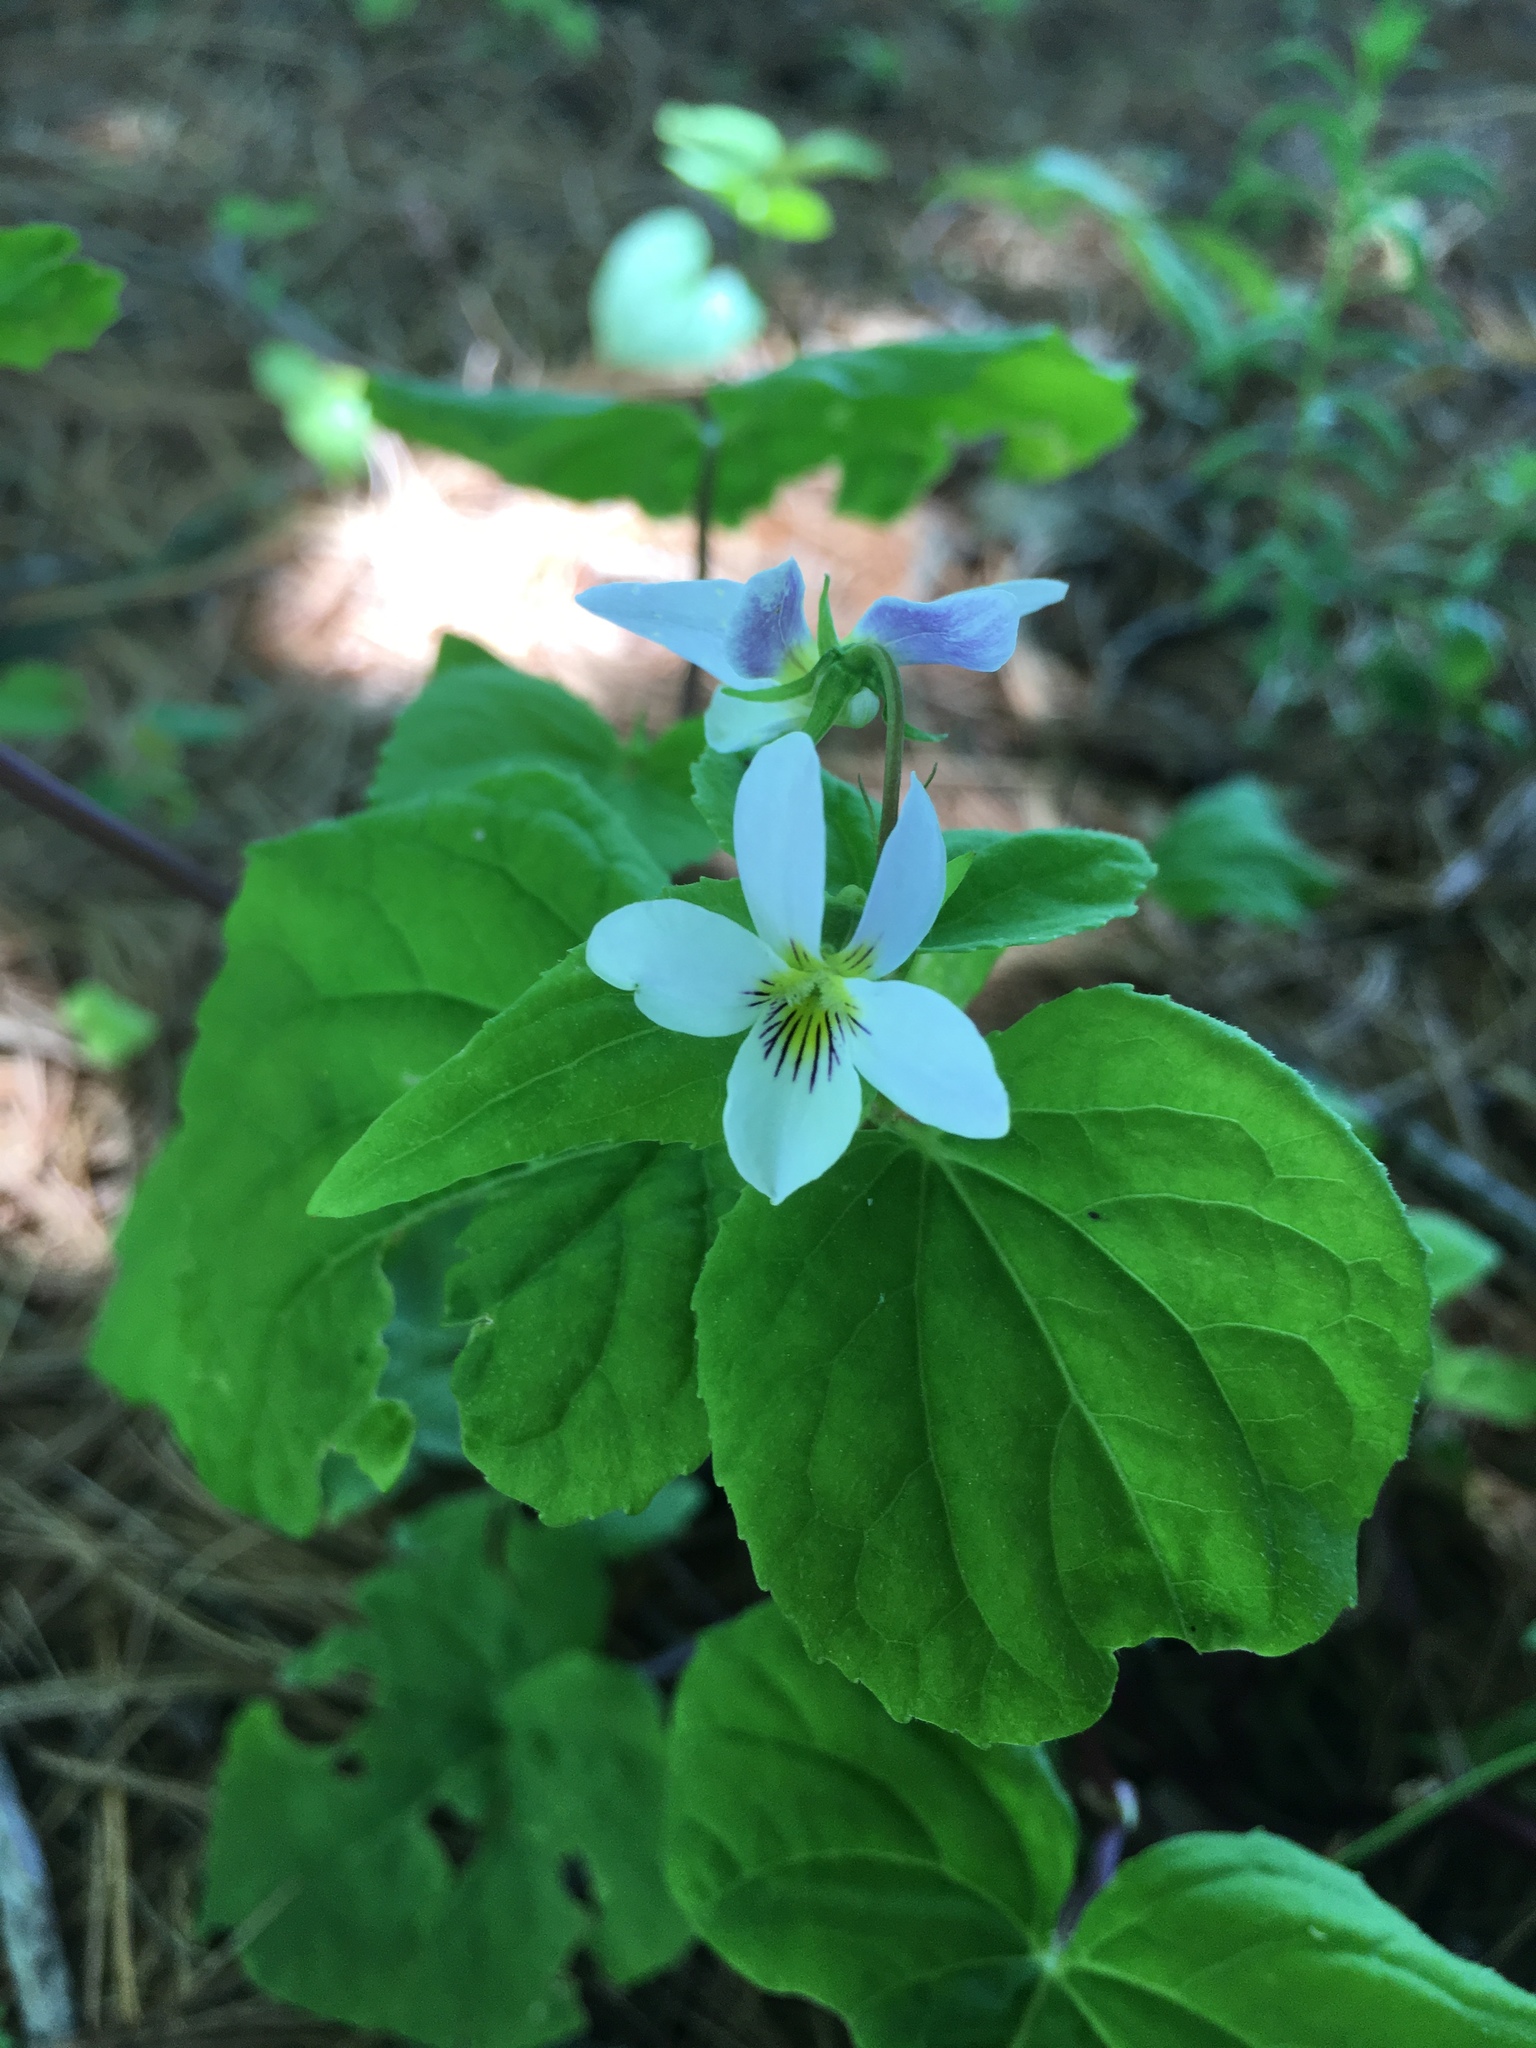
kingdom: Plantae
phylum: Tracheophyta
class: Magnoliopsida
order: Malpighiales
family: Violaceae
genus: Viola
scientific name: Viola canadensis
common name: Canada violet
